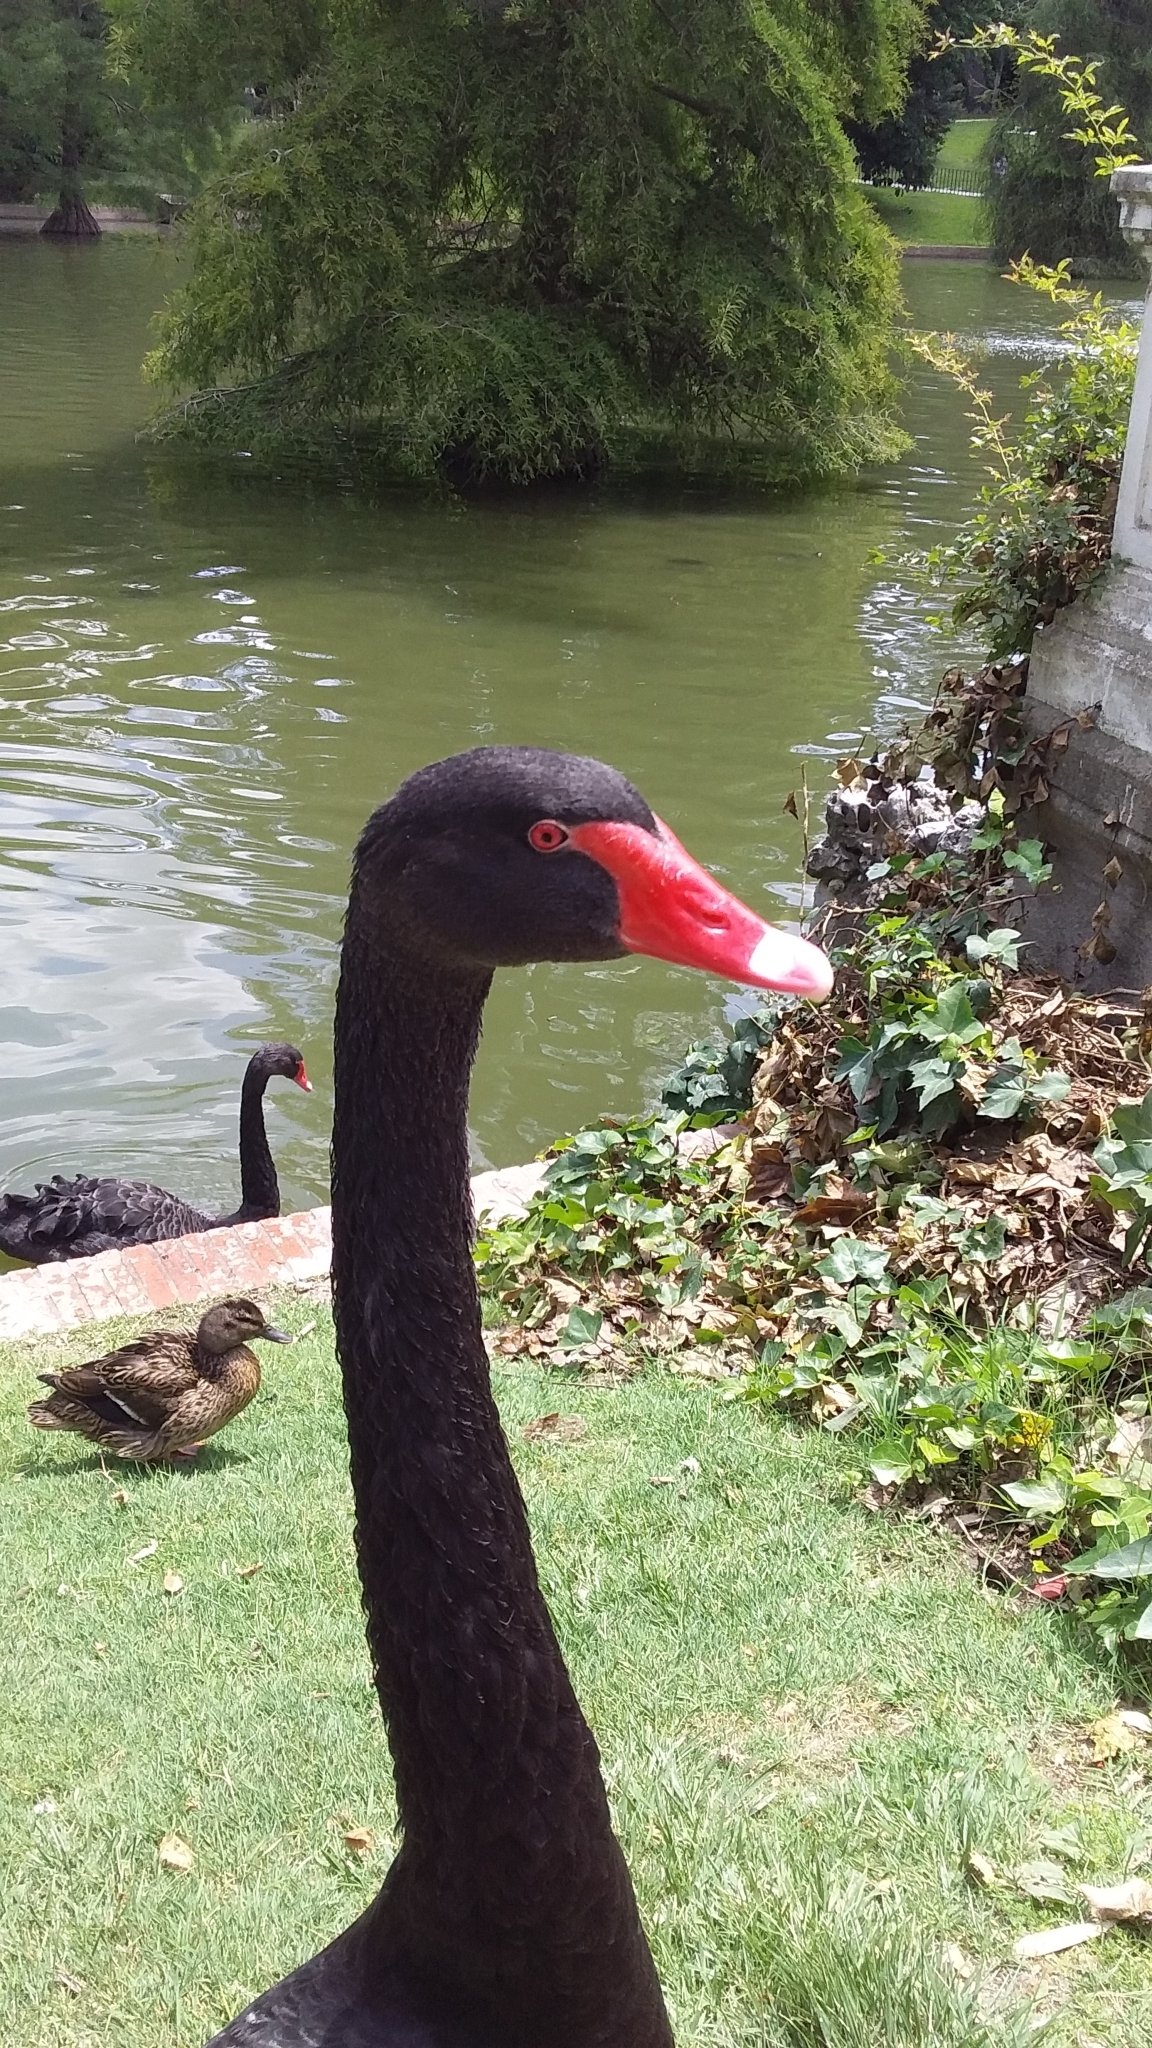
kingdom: Animalia
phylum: Chordata
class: Aves
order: Anseriformes
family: Anatidae
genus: Cygnus
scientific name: Cygnus atratus
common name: Black swan
